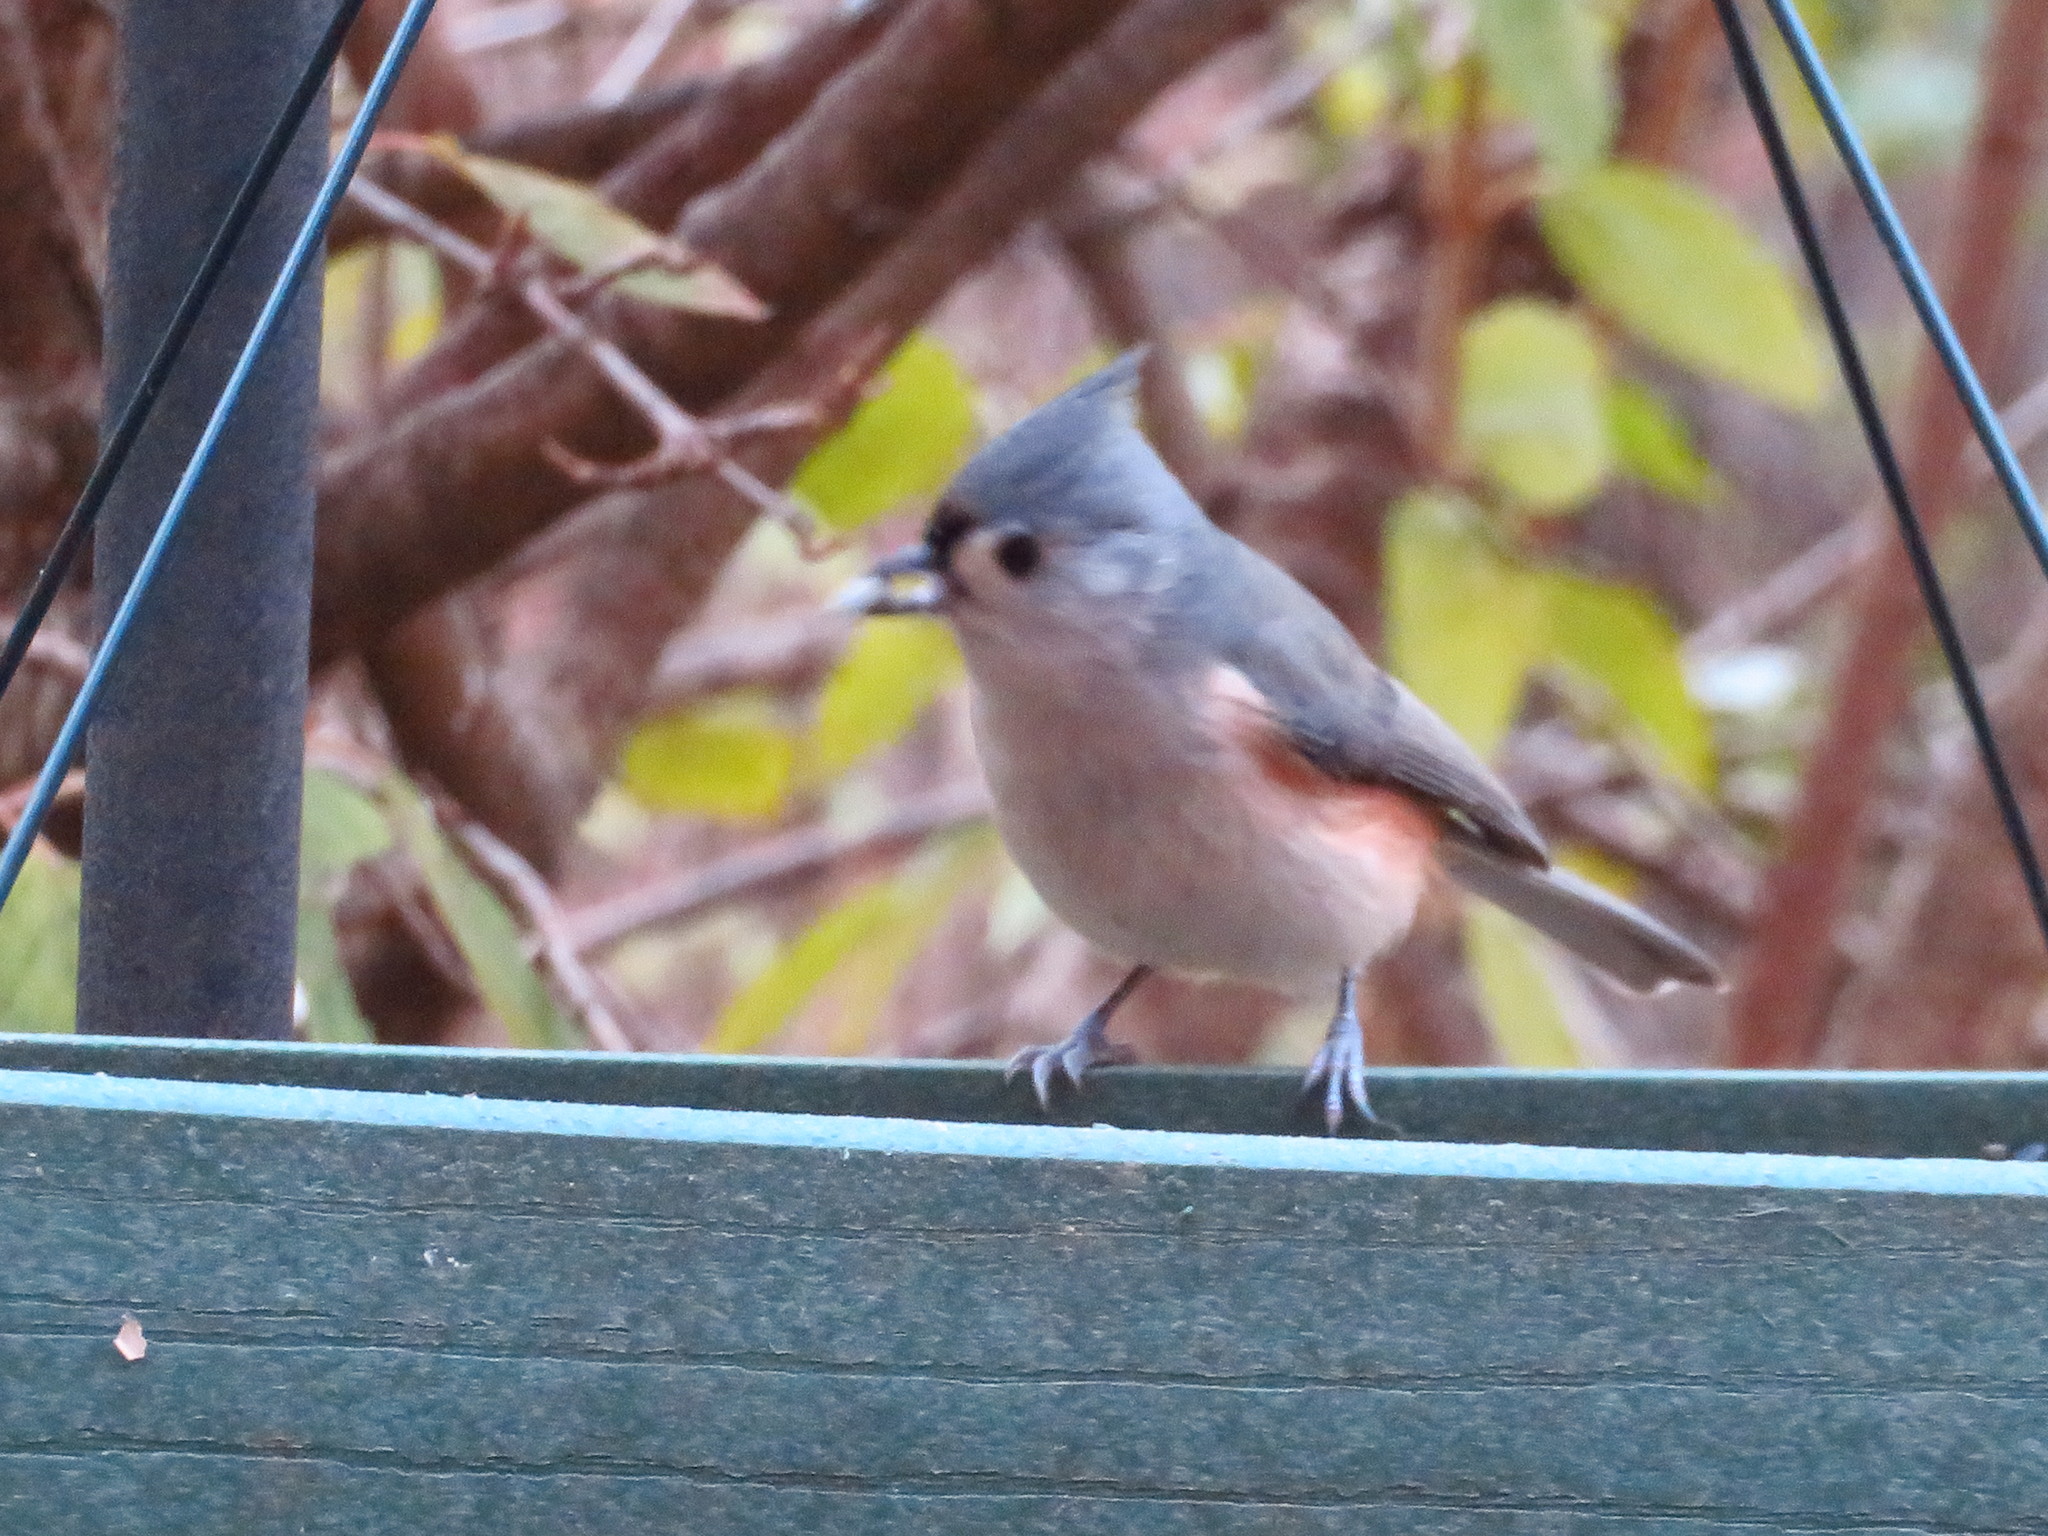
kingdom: Animalia
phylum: Chordata
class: Aves
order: Passeriformes
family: Paridae
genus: Baeolophus
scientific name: Baeolophus bicolor
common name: Tufted titmouse
